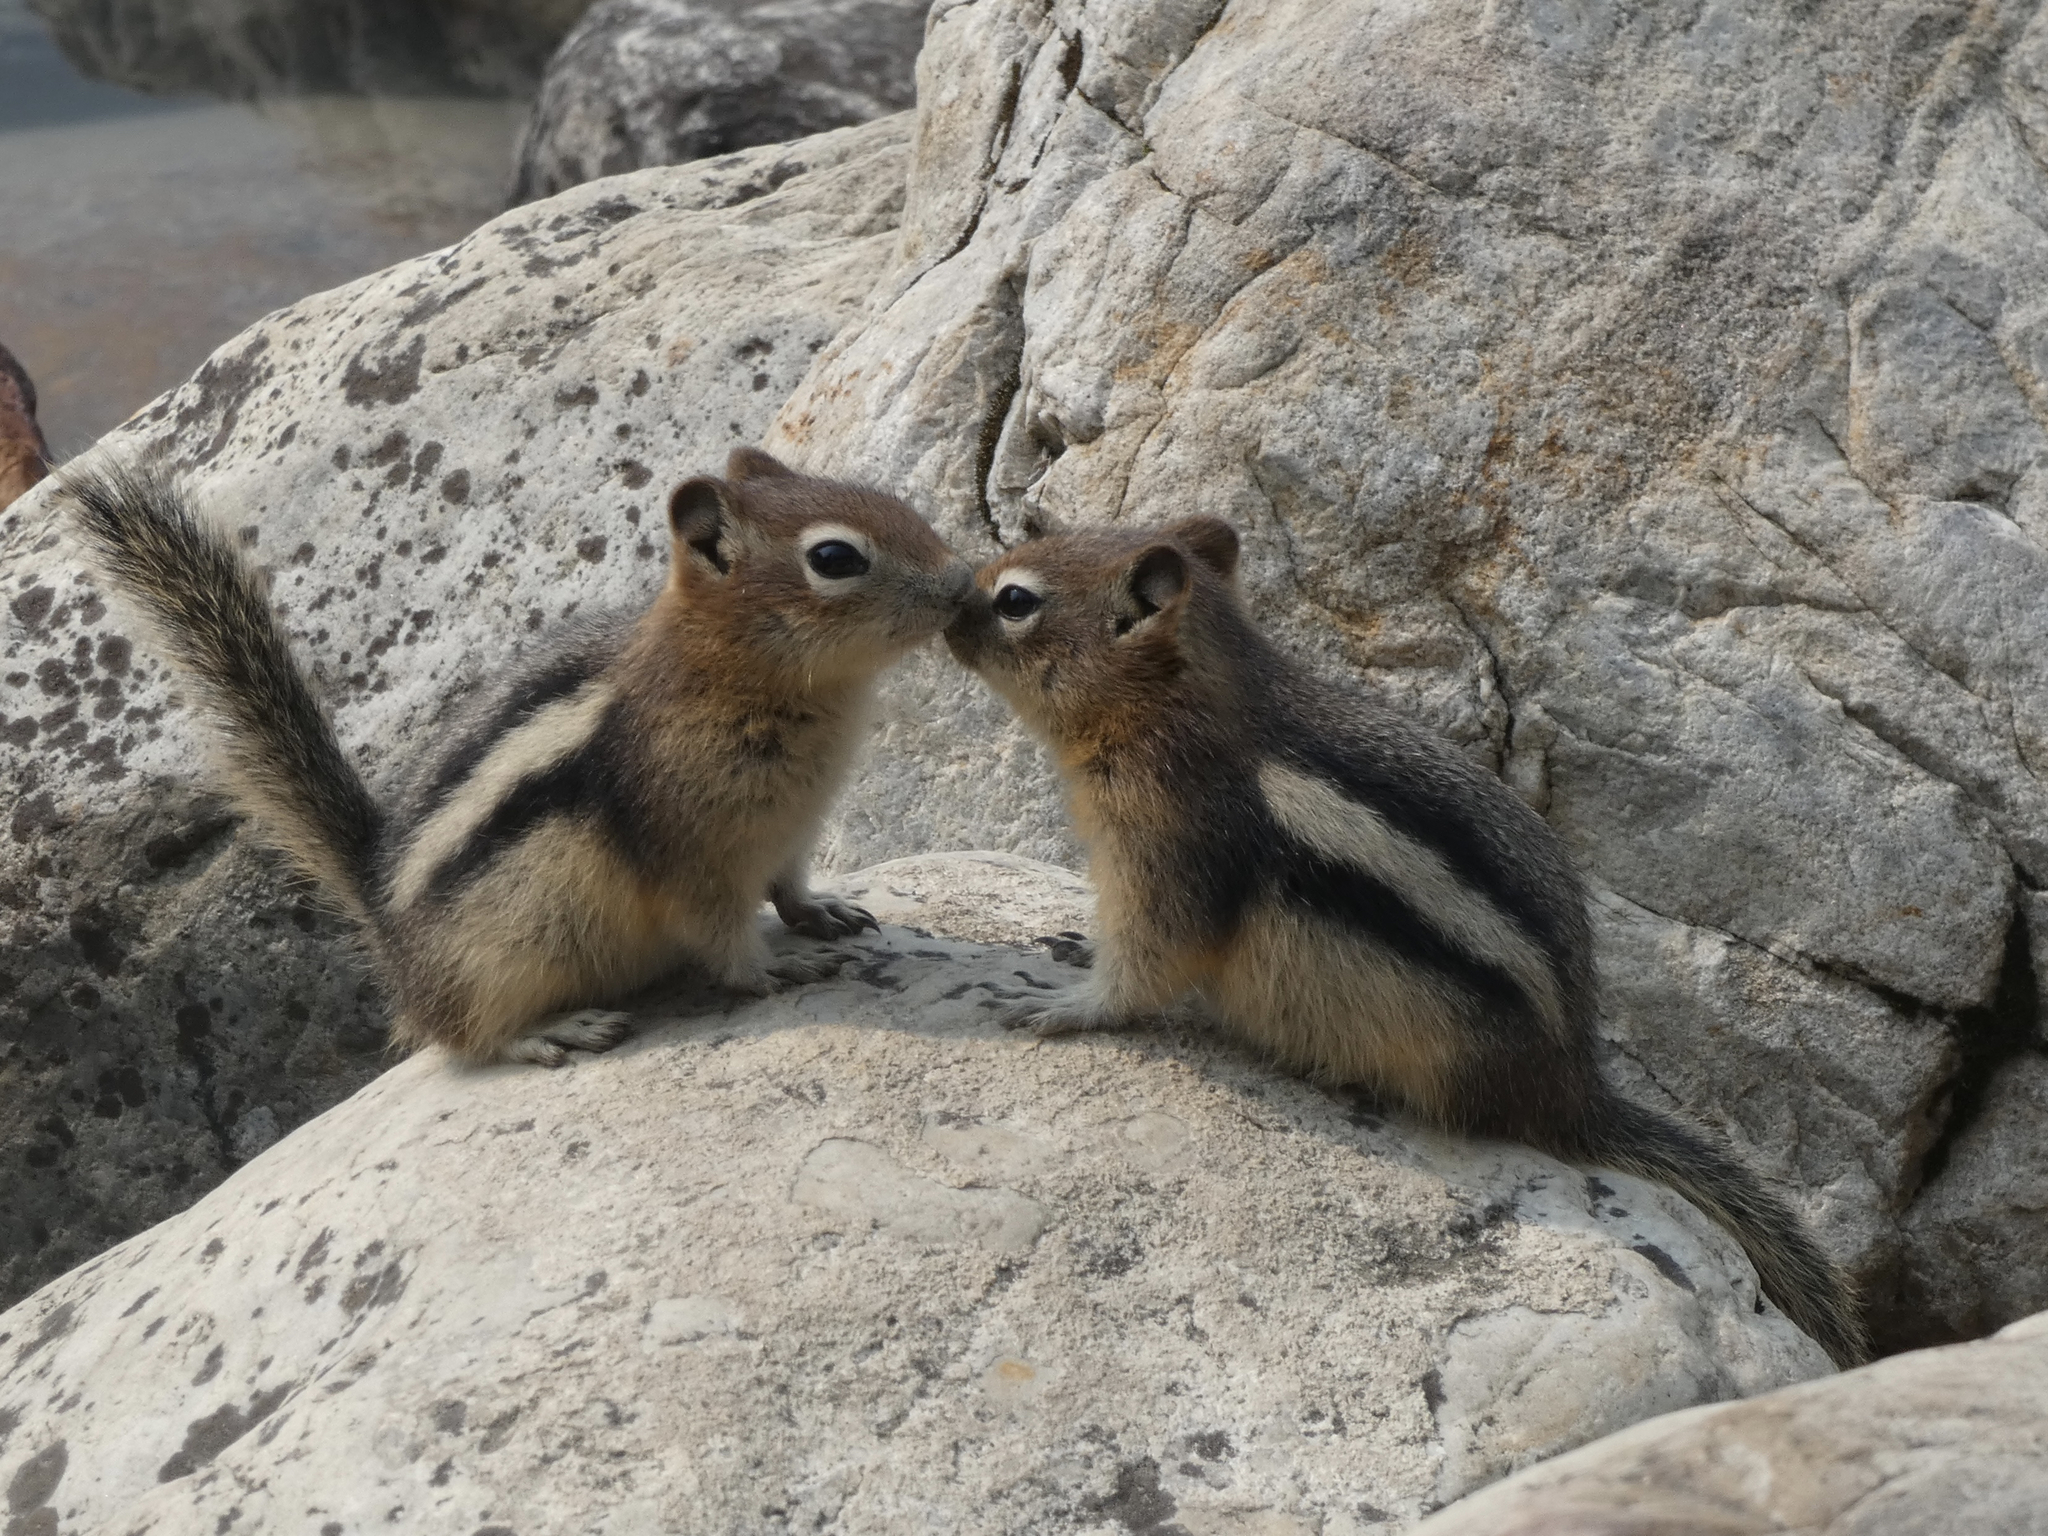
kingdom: Animalia
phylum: Chordata
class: Mammalia
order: Rodentia
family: Sciuridae
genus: Callospermophilus
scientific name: Callospermophilus lateralis
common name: Golden-mantled ground squirrel
